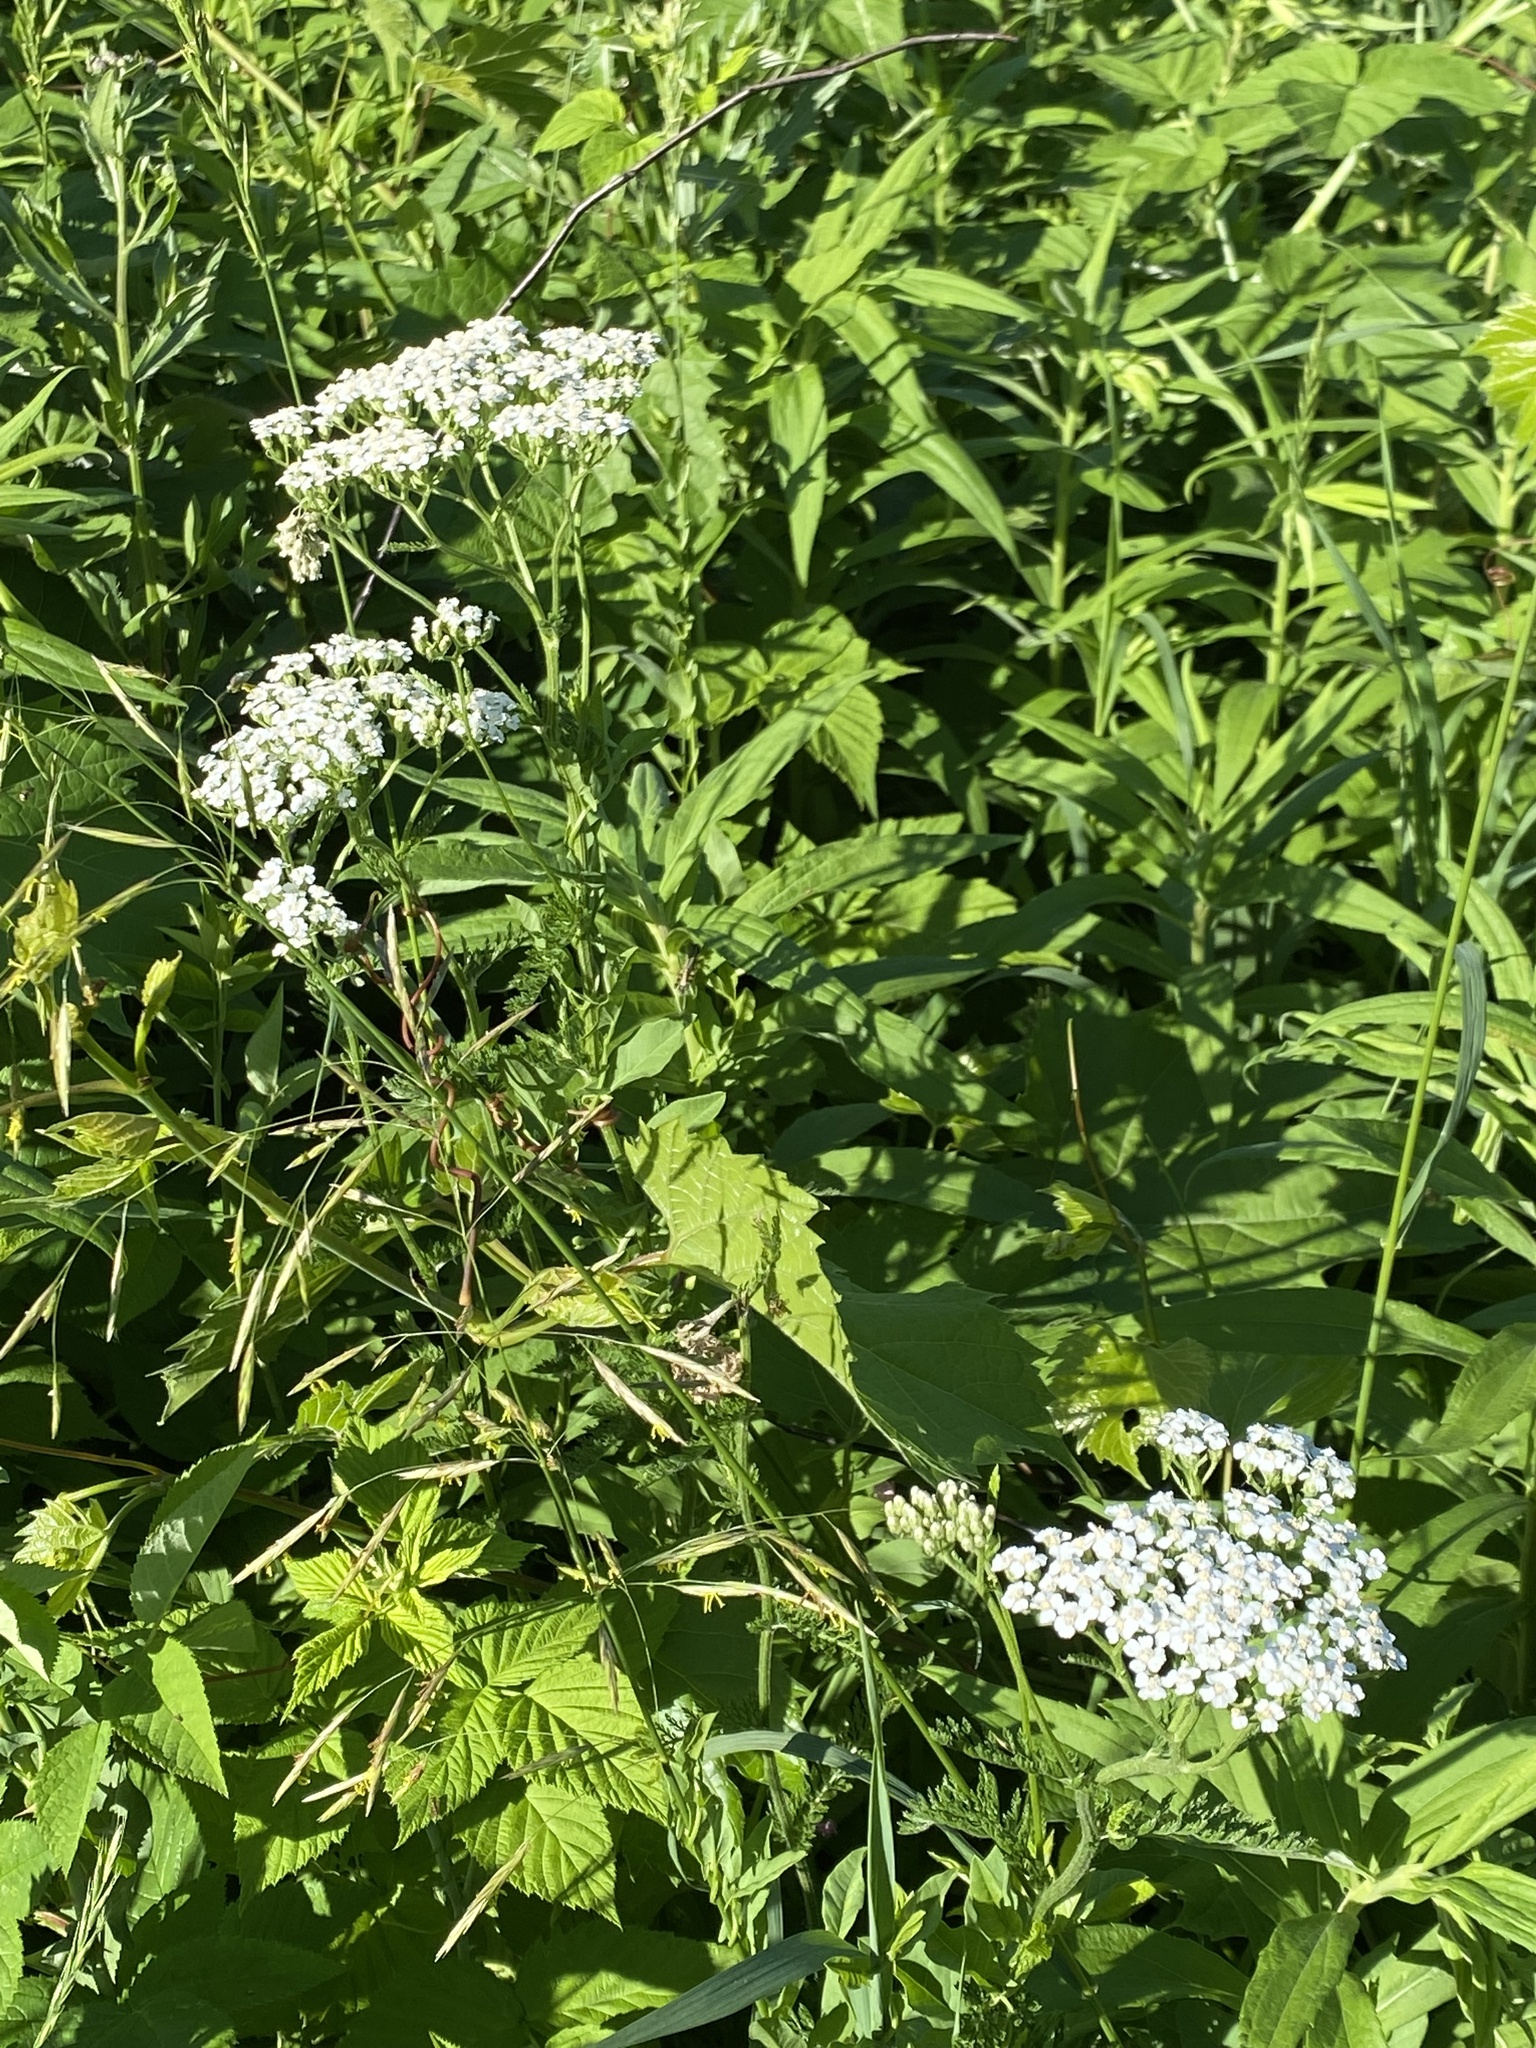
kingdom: Plantae
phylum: Tracheophyta
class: Magnoliopsida
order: Asterales
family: Asteraceae
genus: Achillea
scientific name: Achillea millefolium
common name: Yarrow
